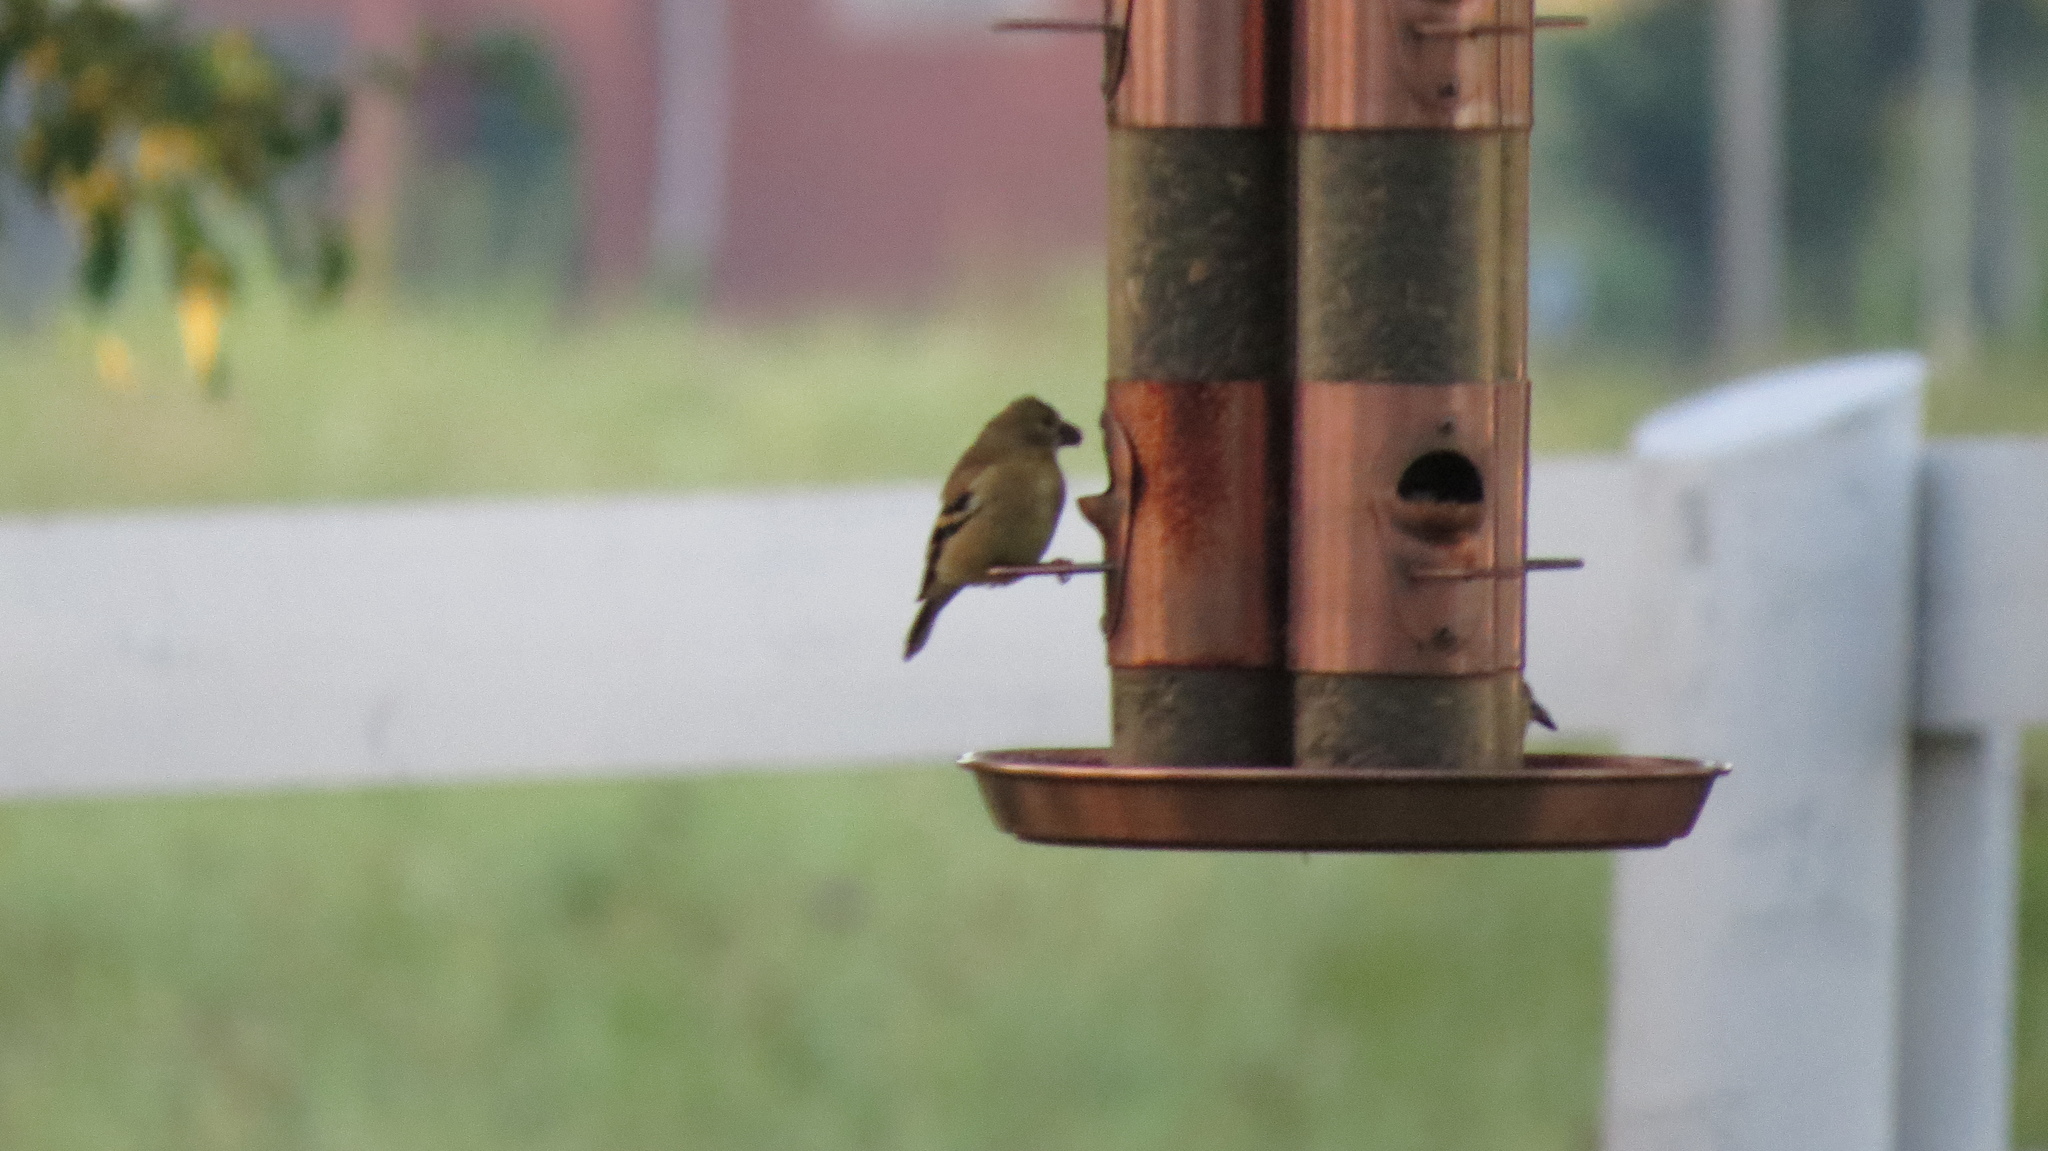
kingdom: Animalia
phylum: Chordata
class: Aves
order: Passeriformes
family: Fringillidae
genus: Spinus
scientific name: Spinus tristis
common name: American goldfinch
